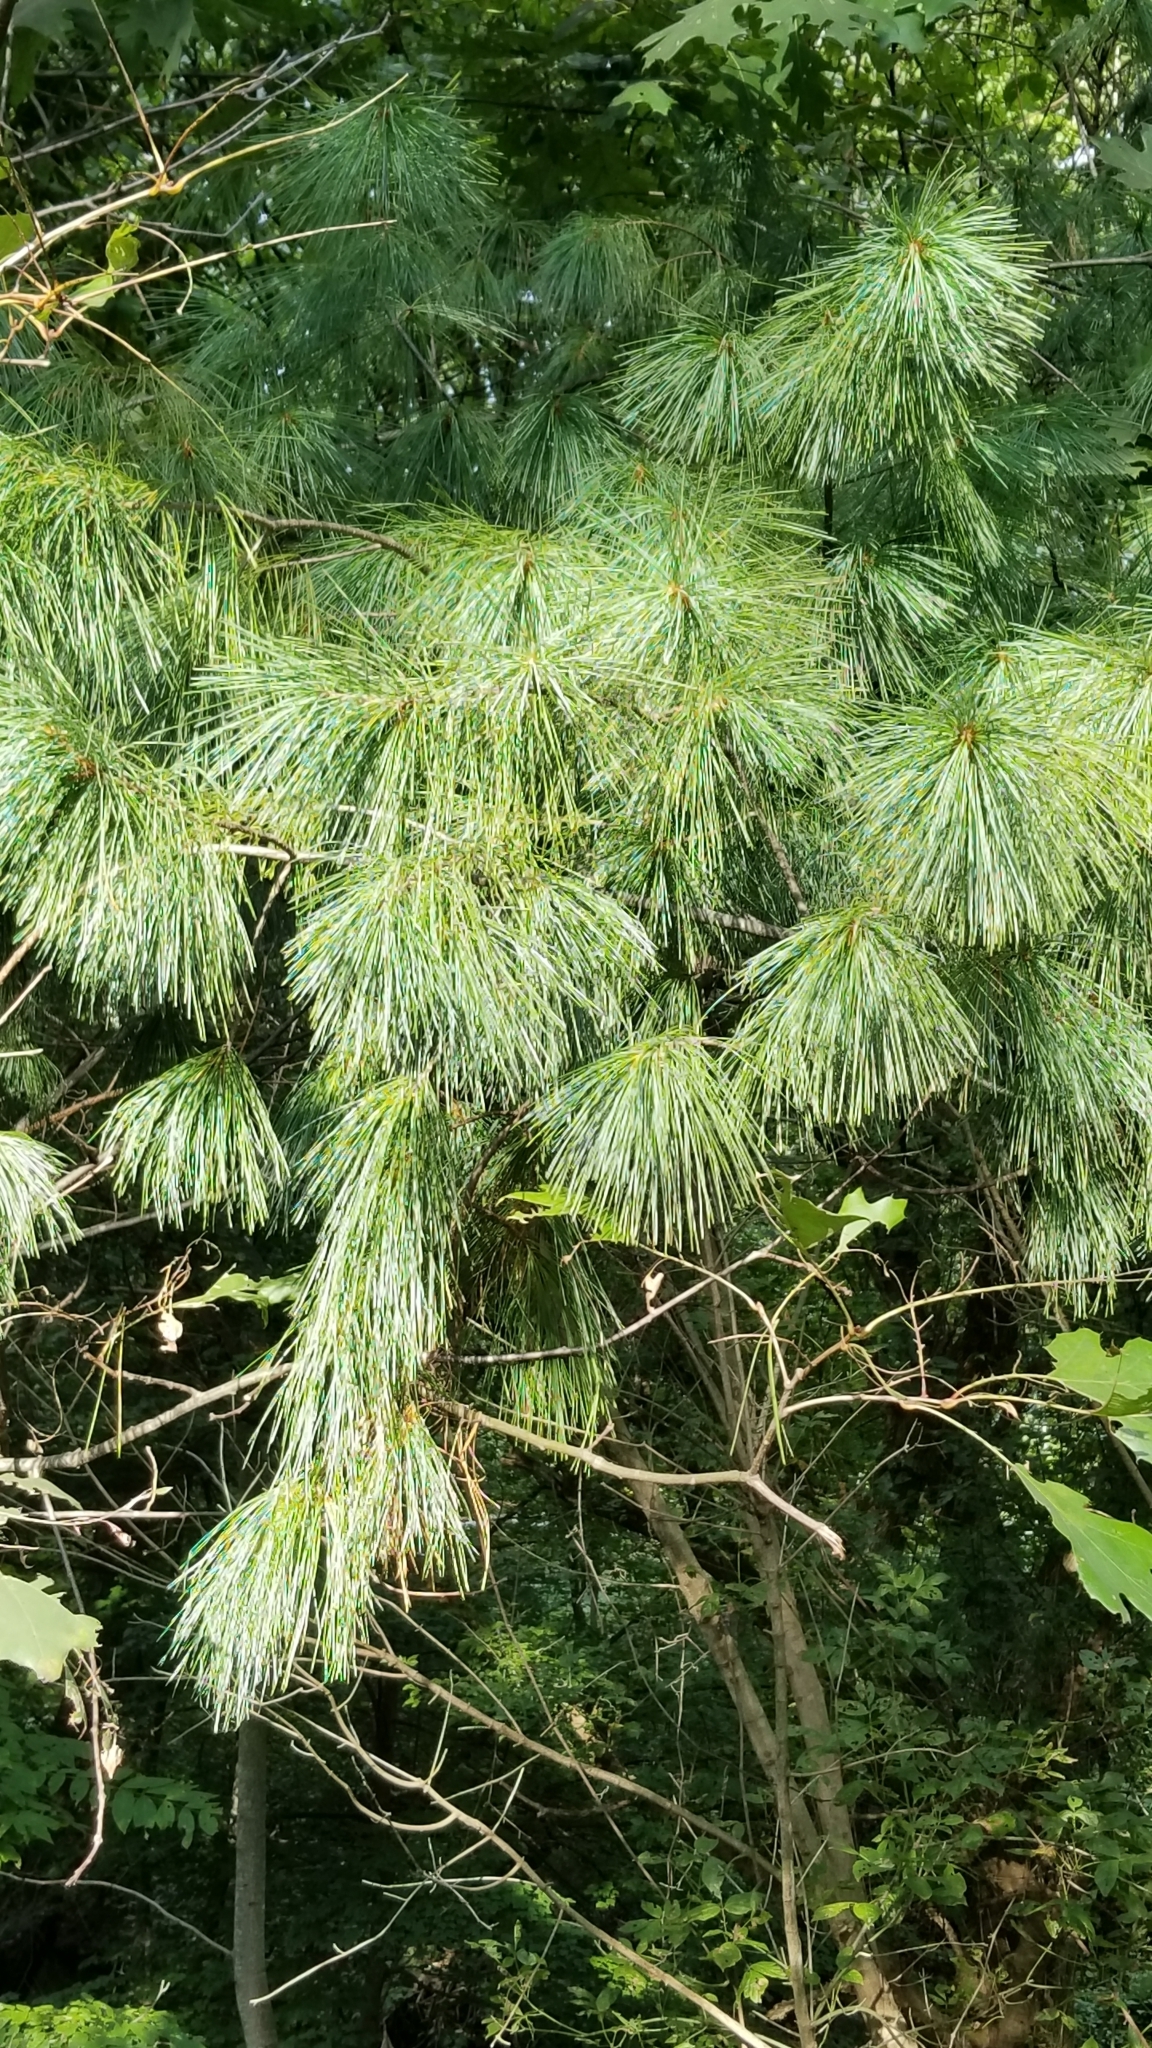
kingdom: Plantae
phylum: Tracheophyta
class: Pinopsida
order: Pinales
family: Pinaceae
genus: Pinus
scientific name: Pinus strobus
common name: Weymouth pine
